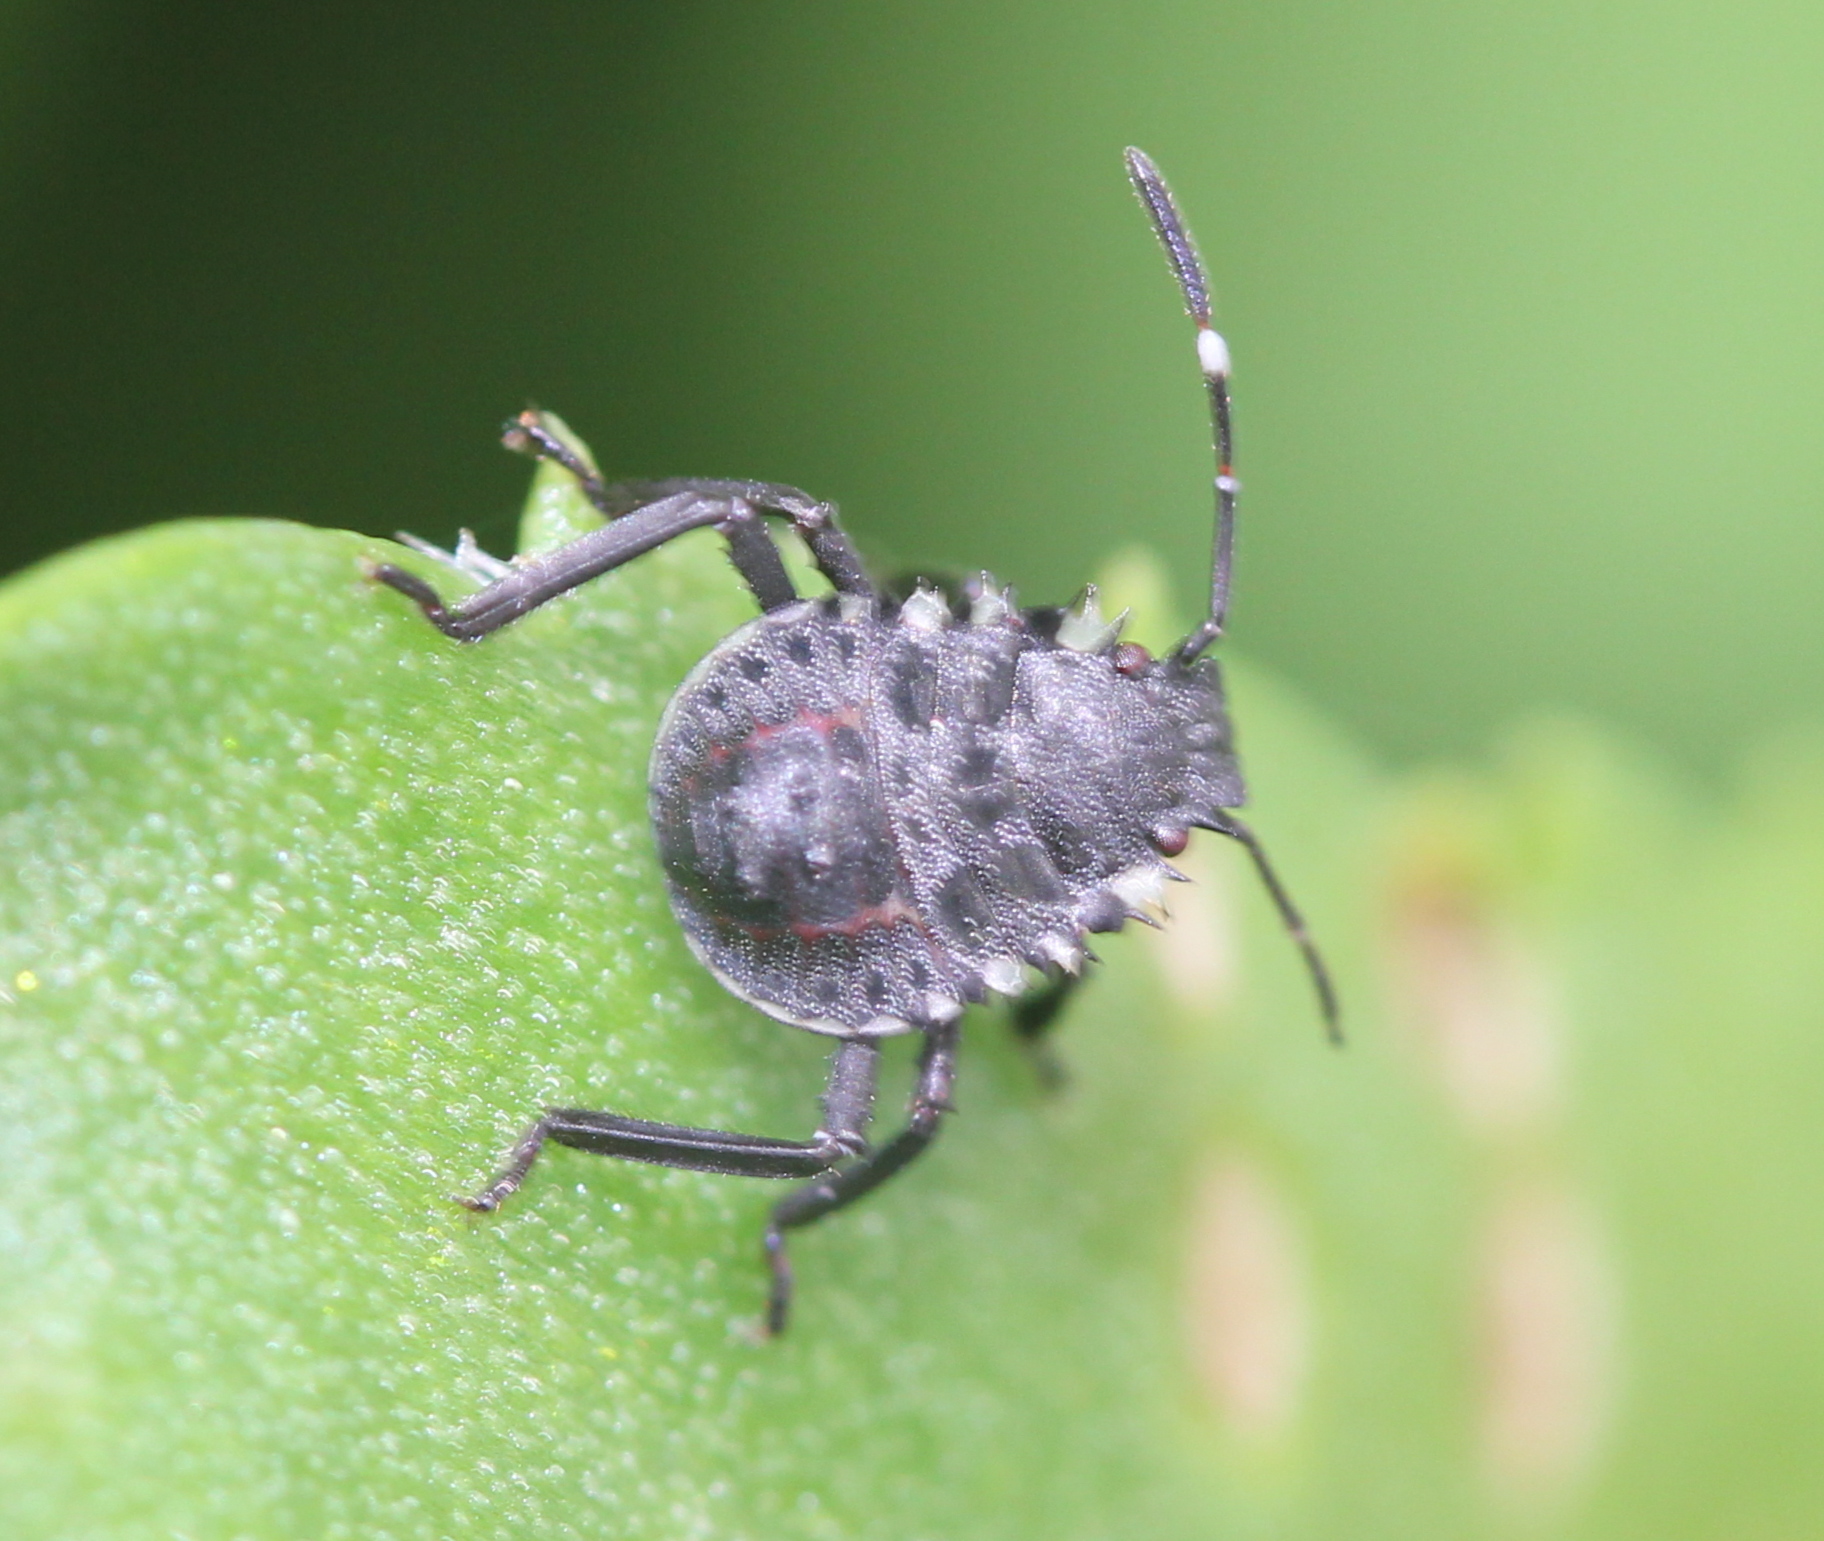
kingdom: Animalia
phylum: Arthropoda
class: Insecta
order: Hemiptera
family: Pentatomidae
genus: Halyomorpha
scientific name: Halyomorpha halys
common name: Brown marmorated stink bug
